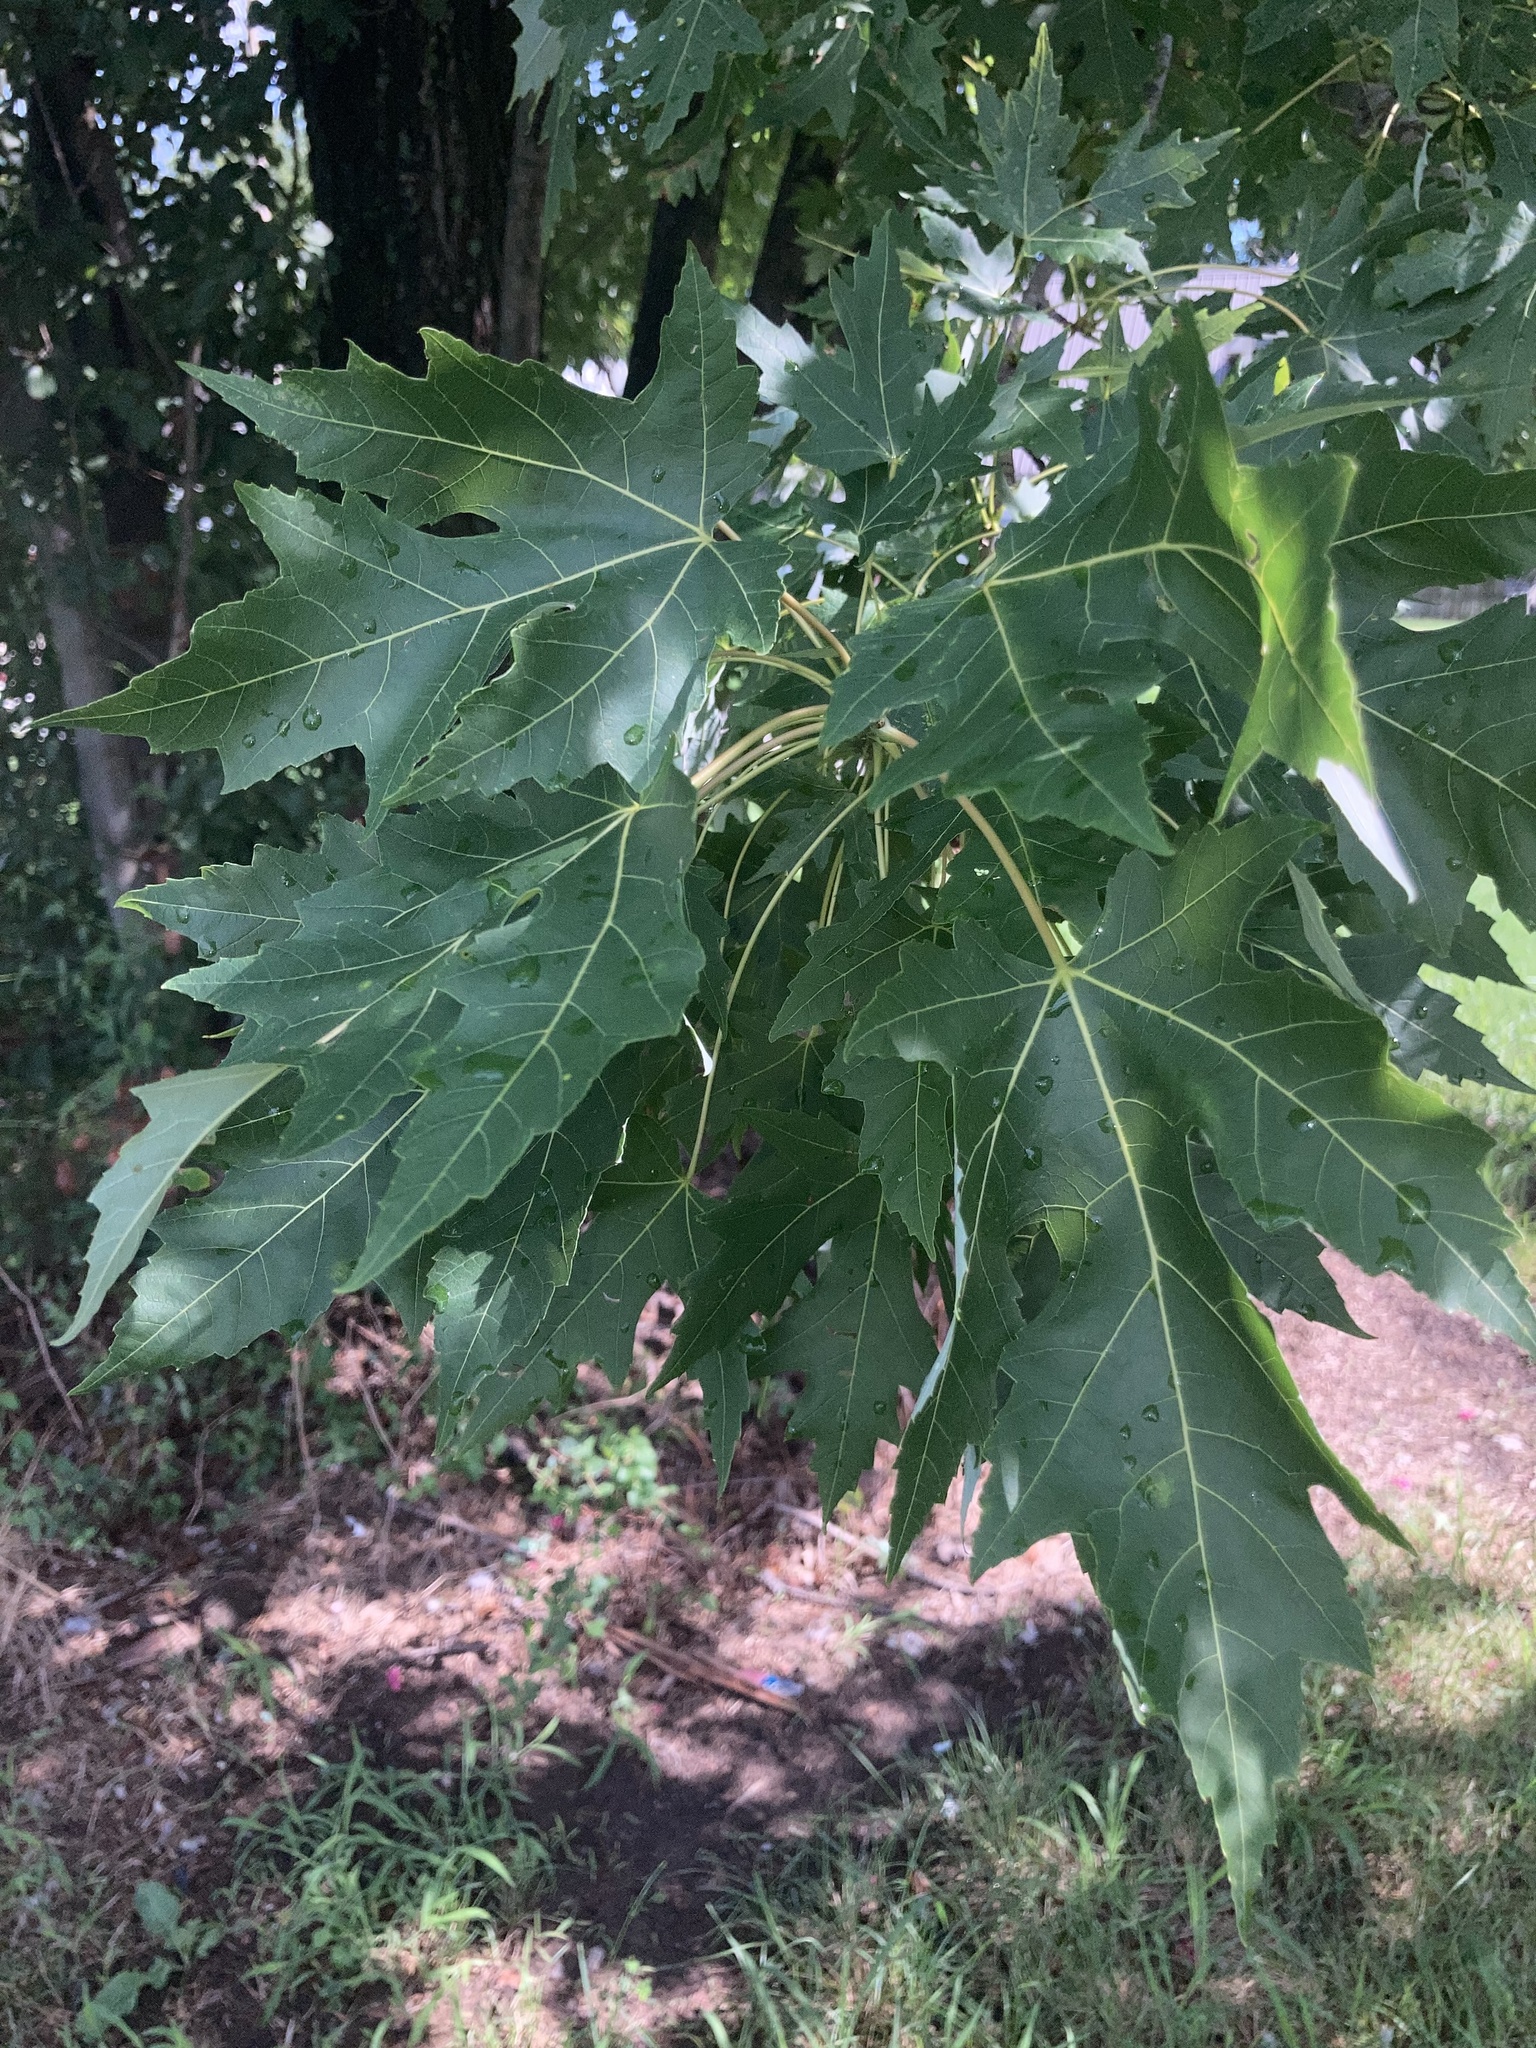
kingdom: Plantae
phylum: Tracheophyta
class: Magnoliopsida
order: Sapindales
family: Sapindaceae
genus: Acer
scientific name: Acer saccharinum
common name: Silver maple
